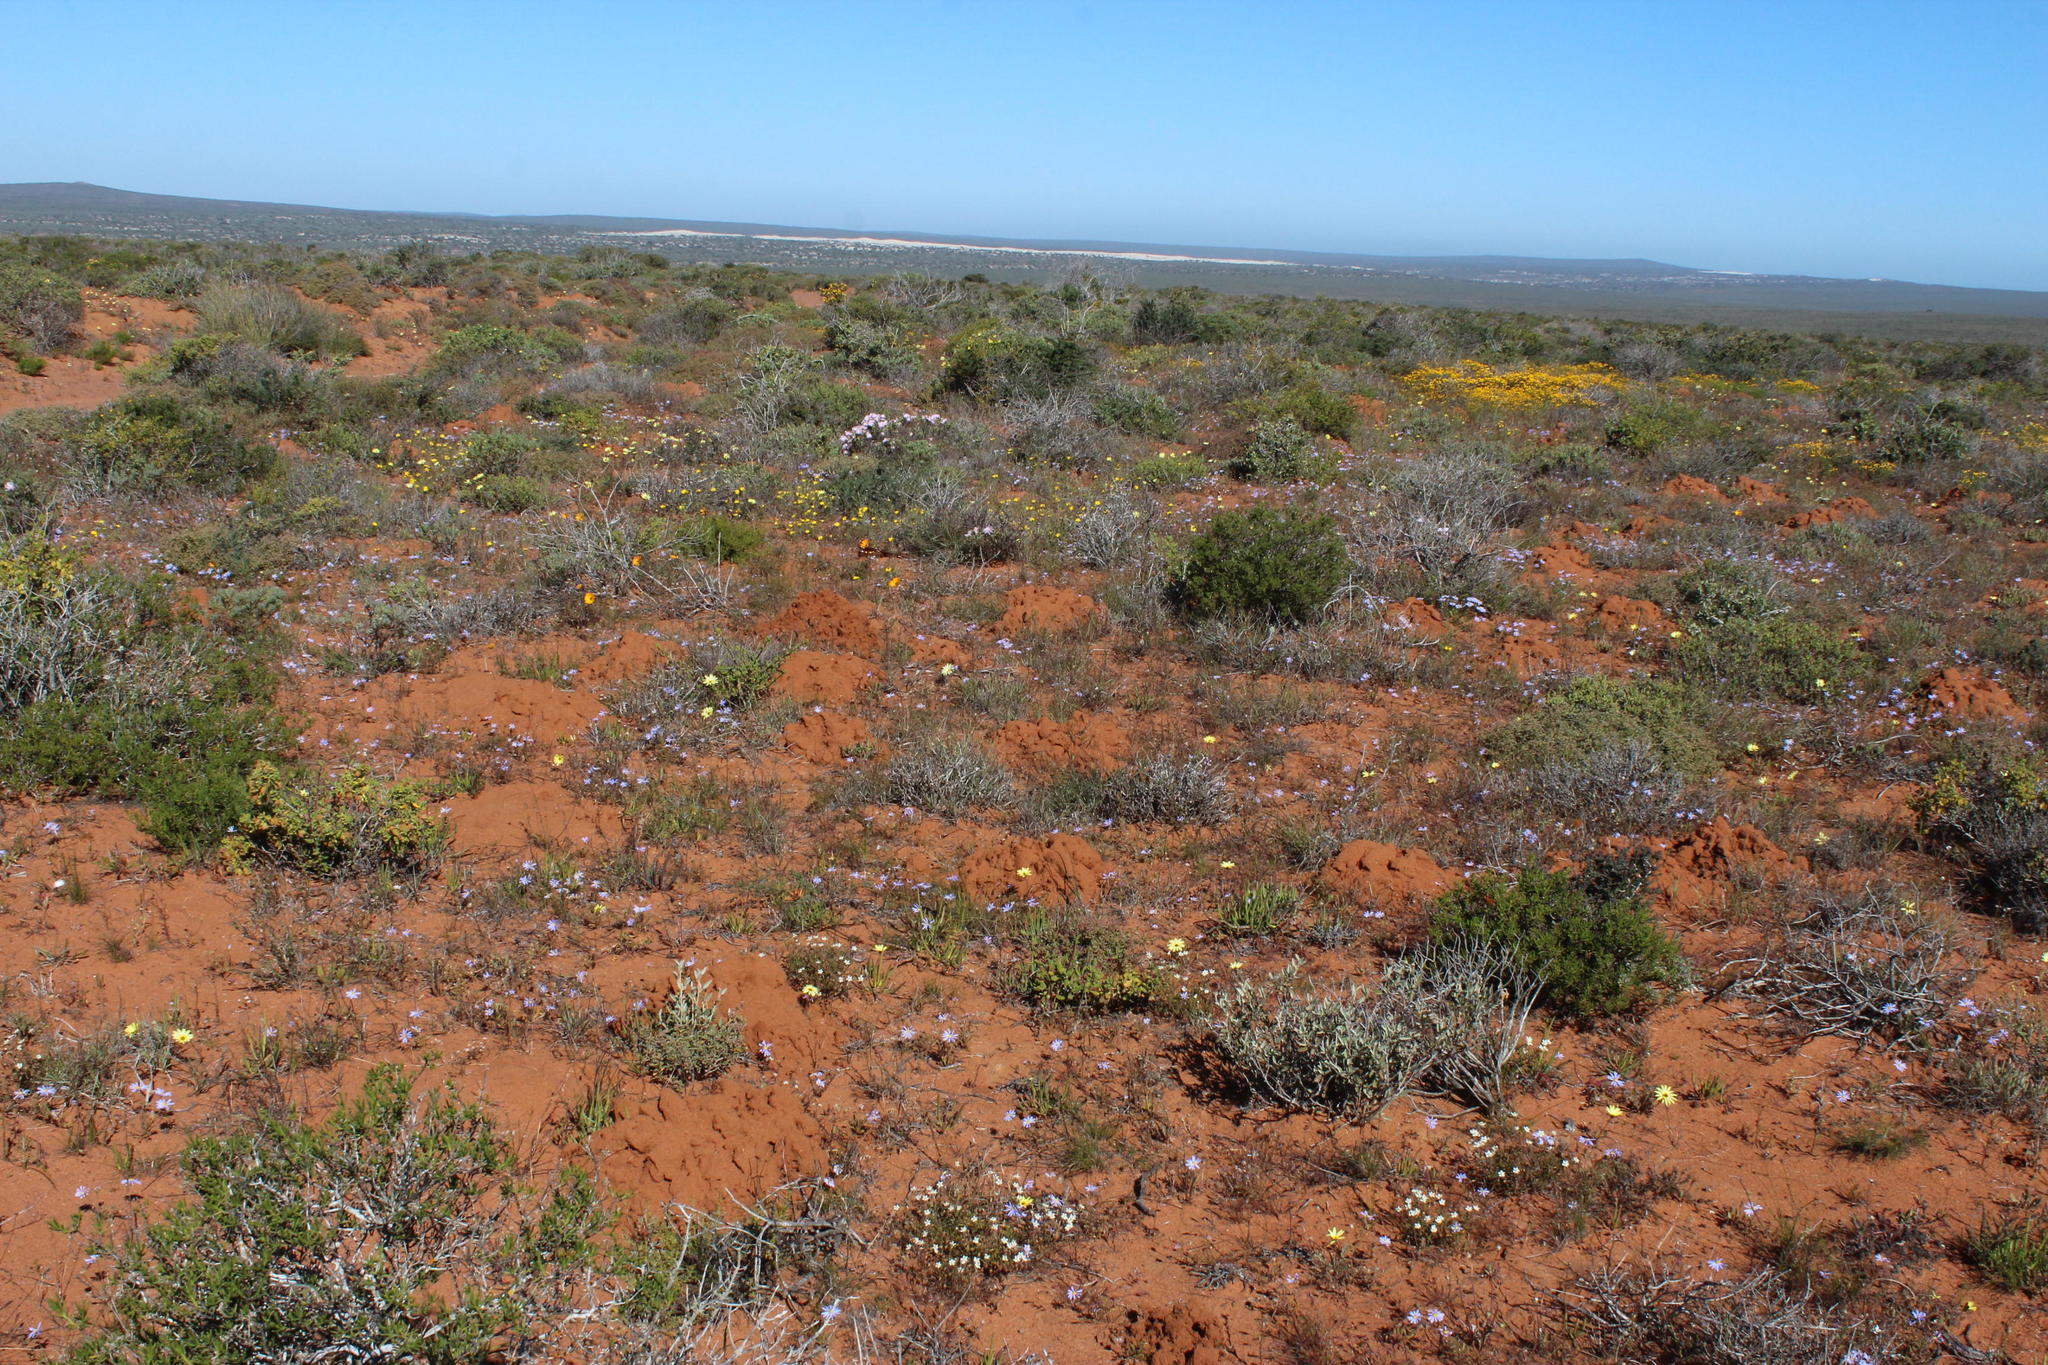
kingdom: Animalia
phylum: Chordata
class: Mammalia
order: Rodentia
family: Bathyergidae
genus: Bathyergus
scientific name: Bathyergus janetta
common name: Namaqua dune mole-rat
